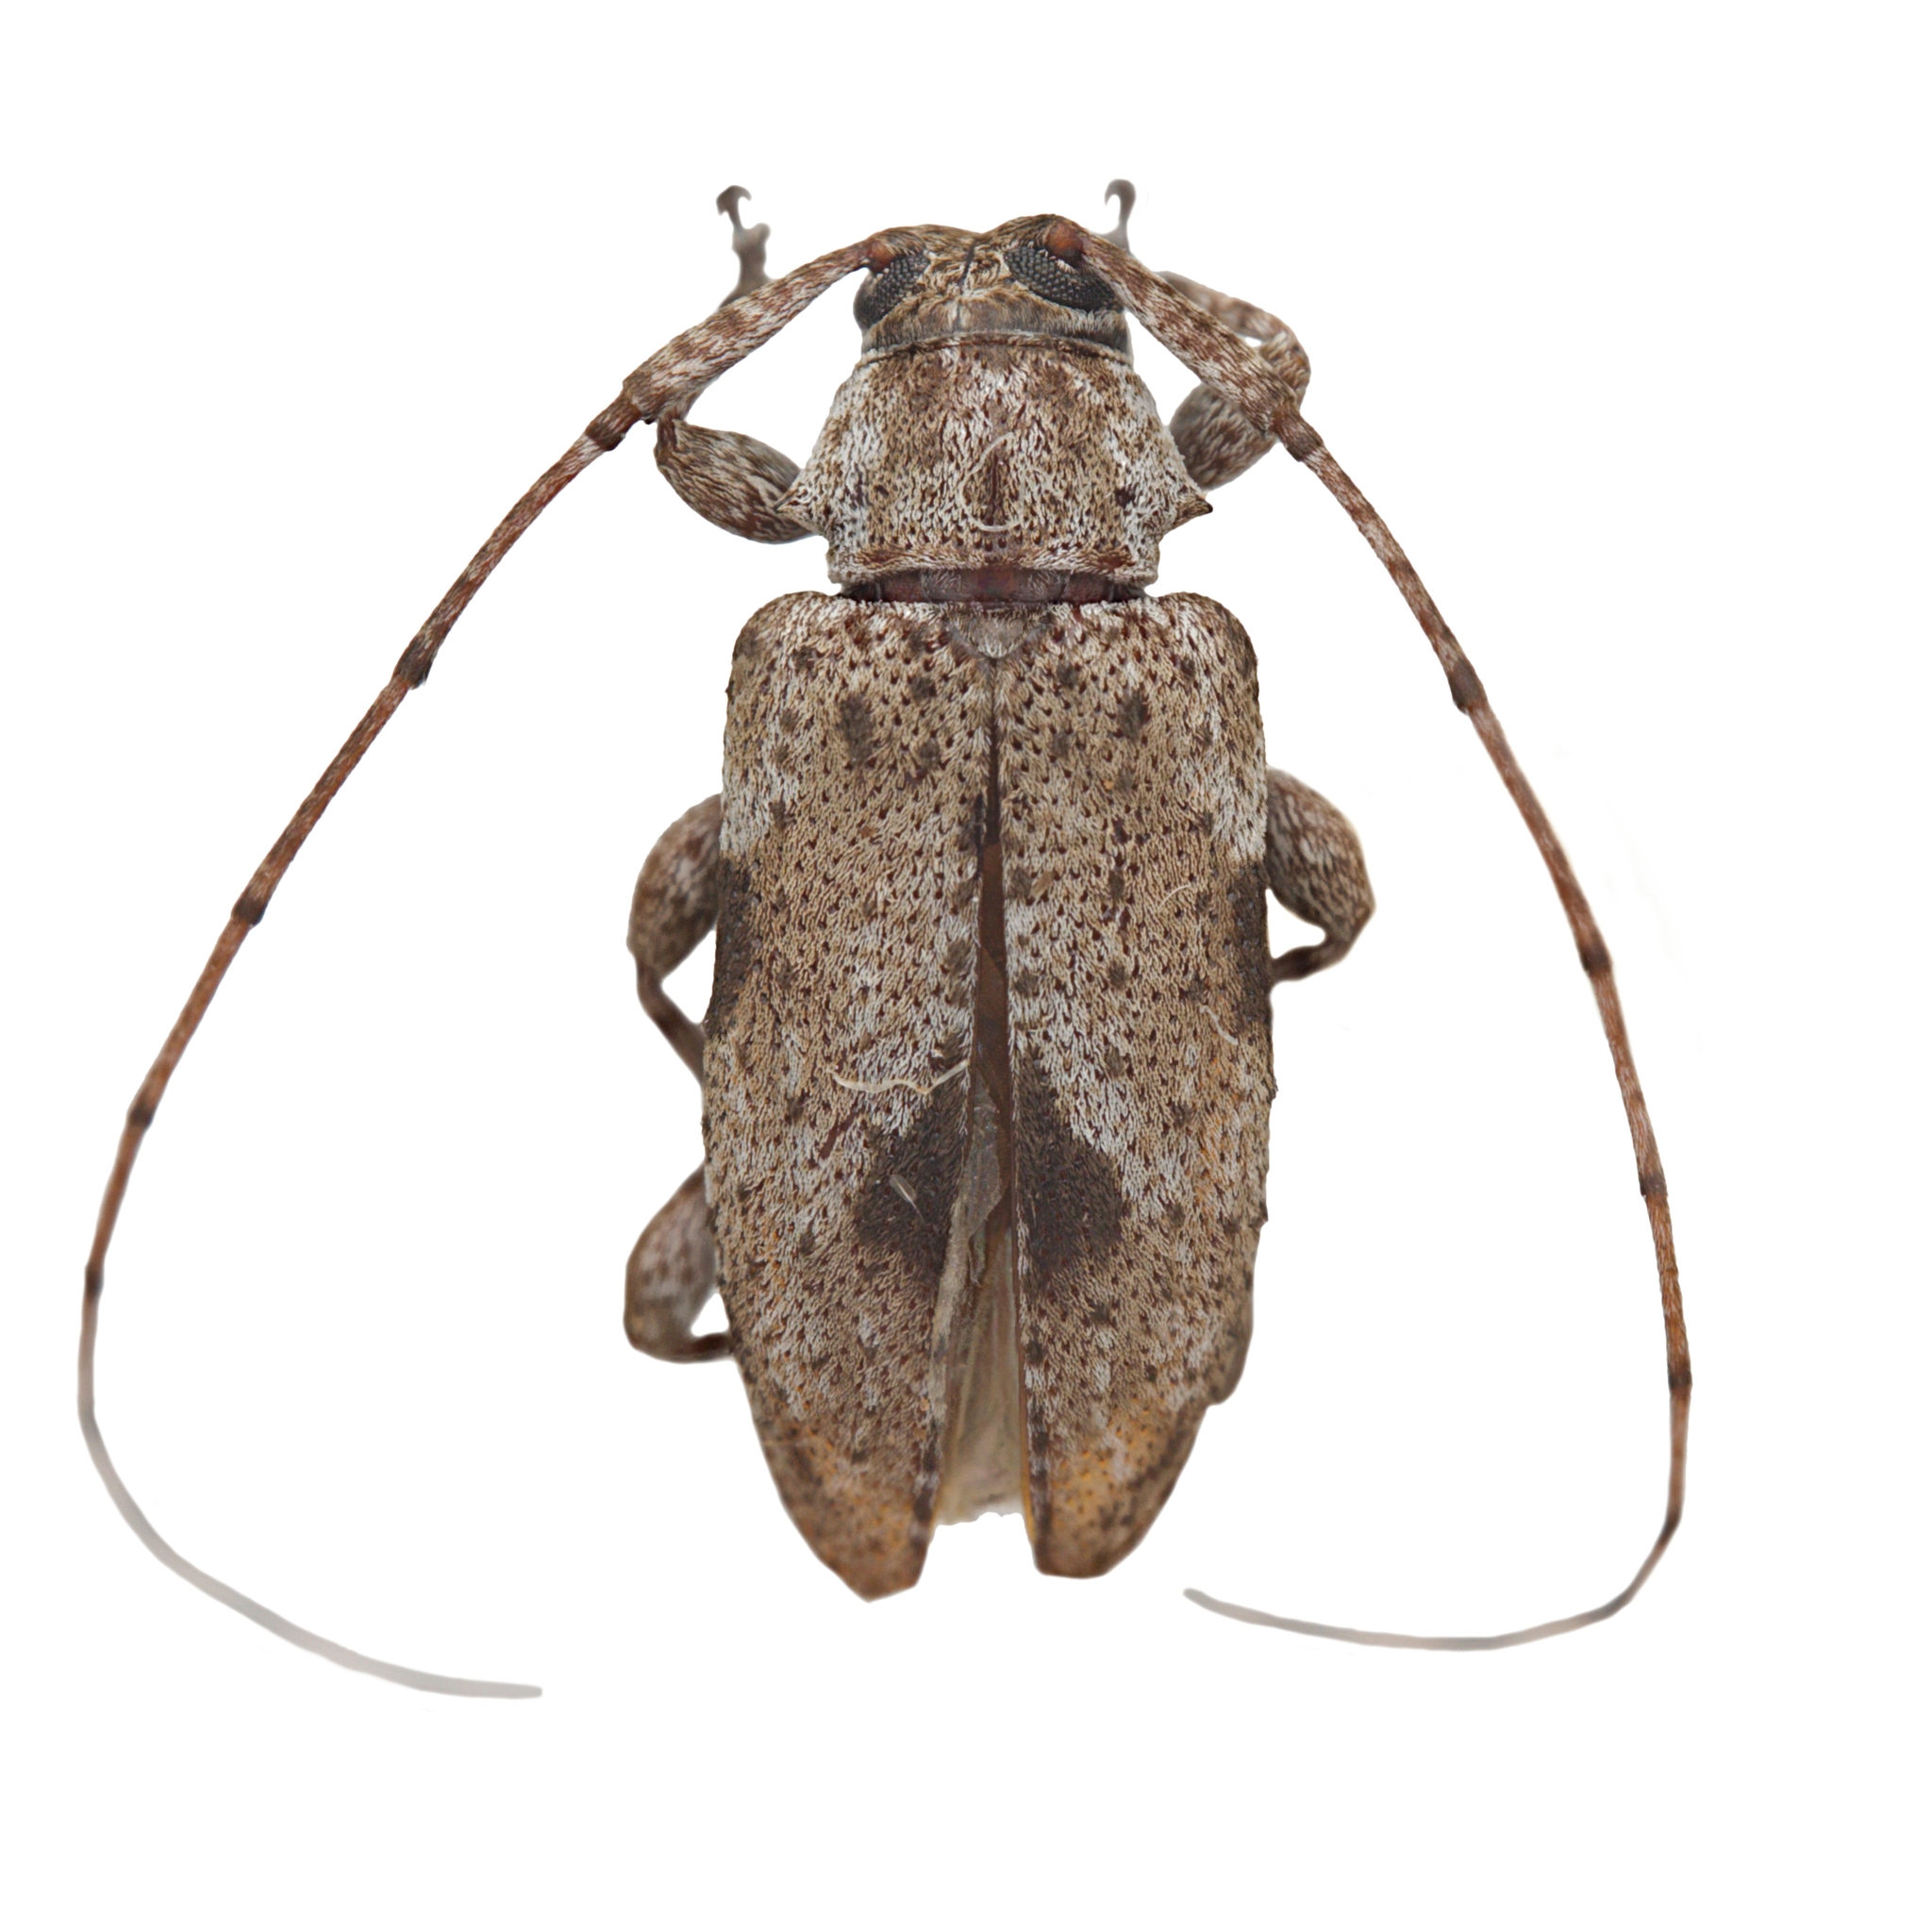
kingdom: Animalia
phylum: Arthropoda
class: Insecta
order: Coleoptera
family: Cerambycidae
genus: Sternidius
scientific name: Sternidius centralis
